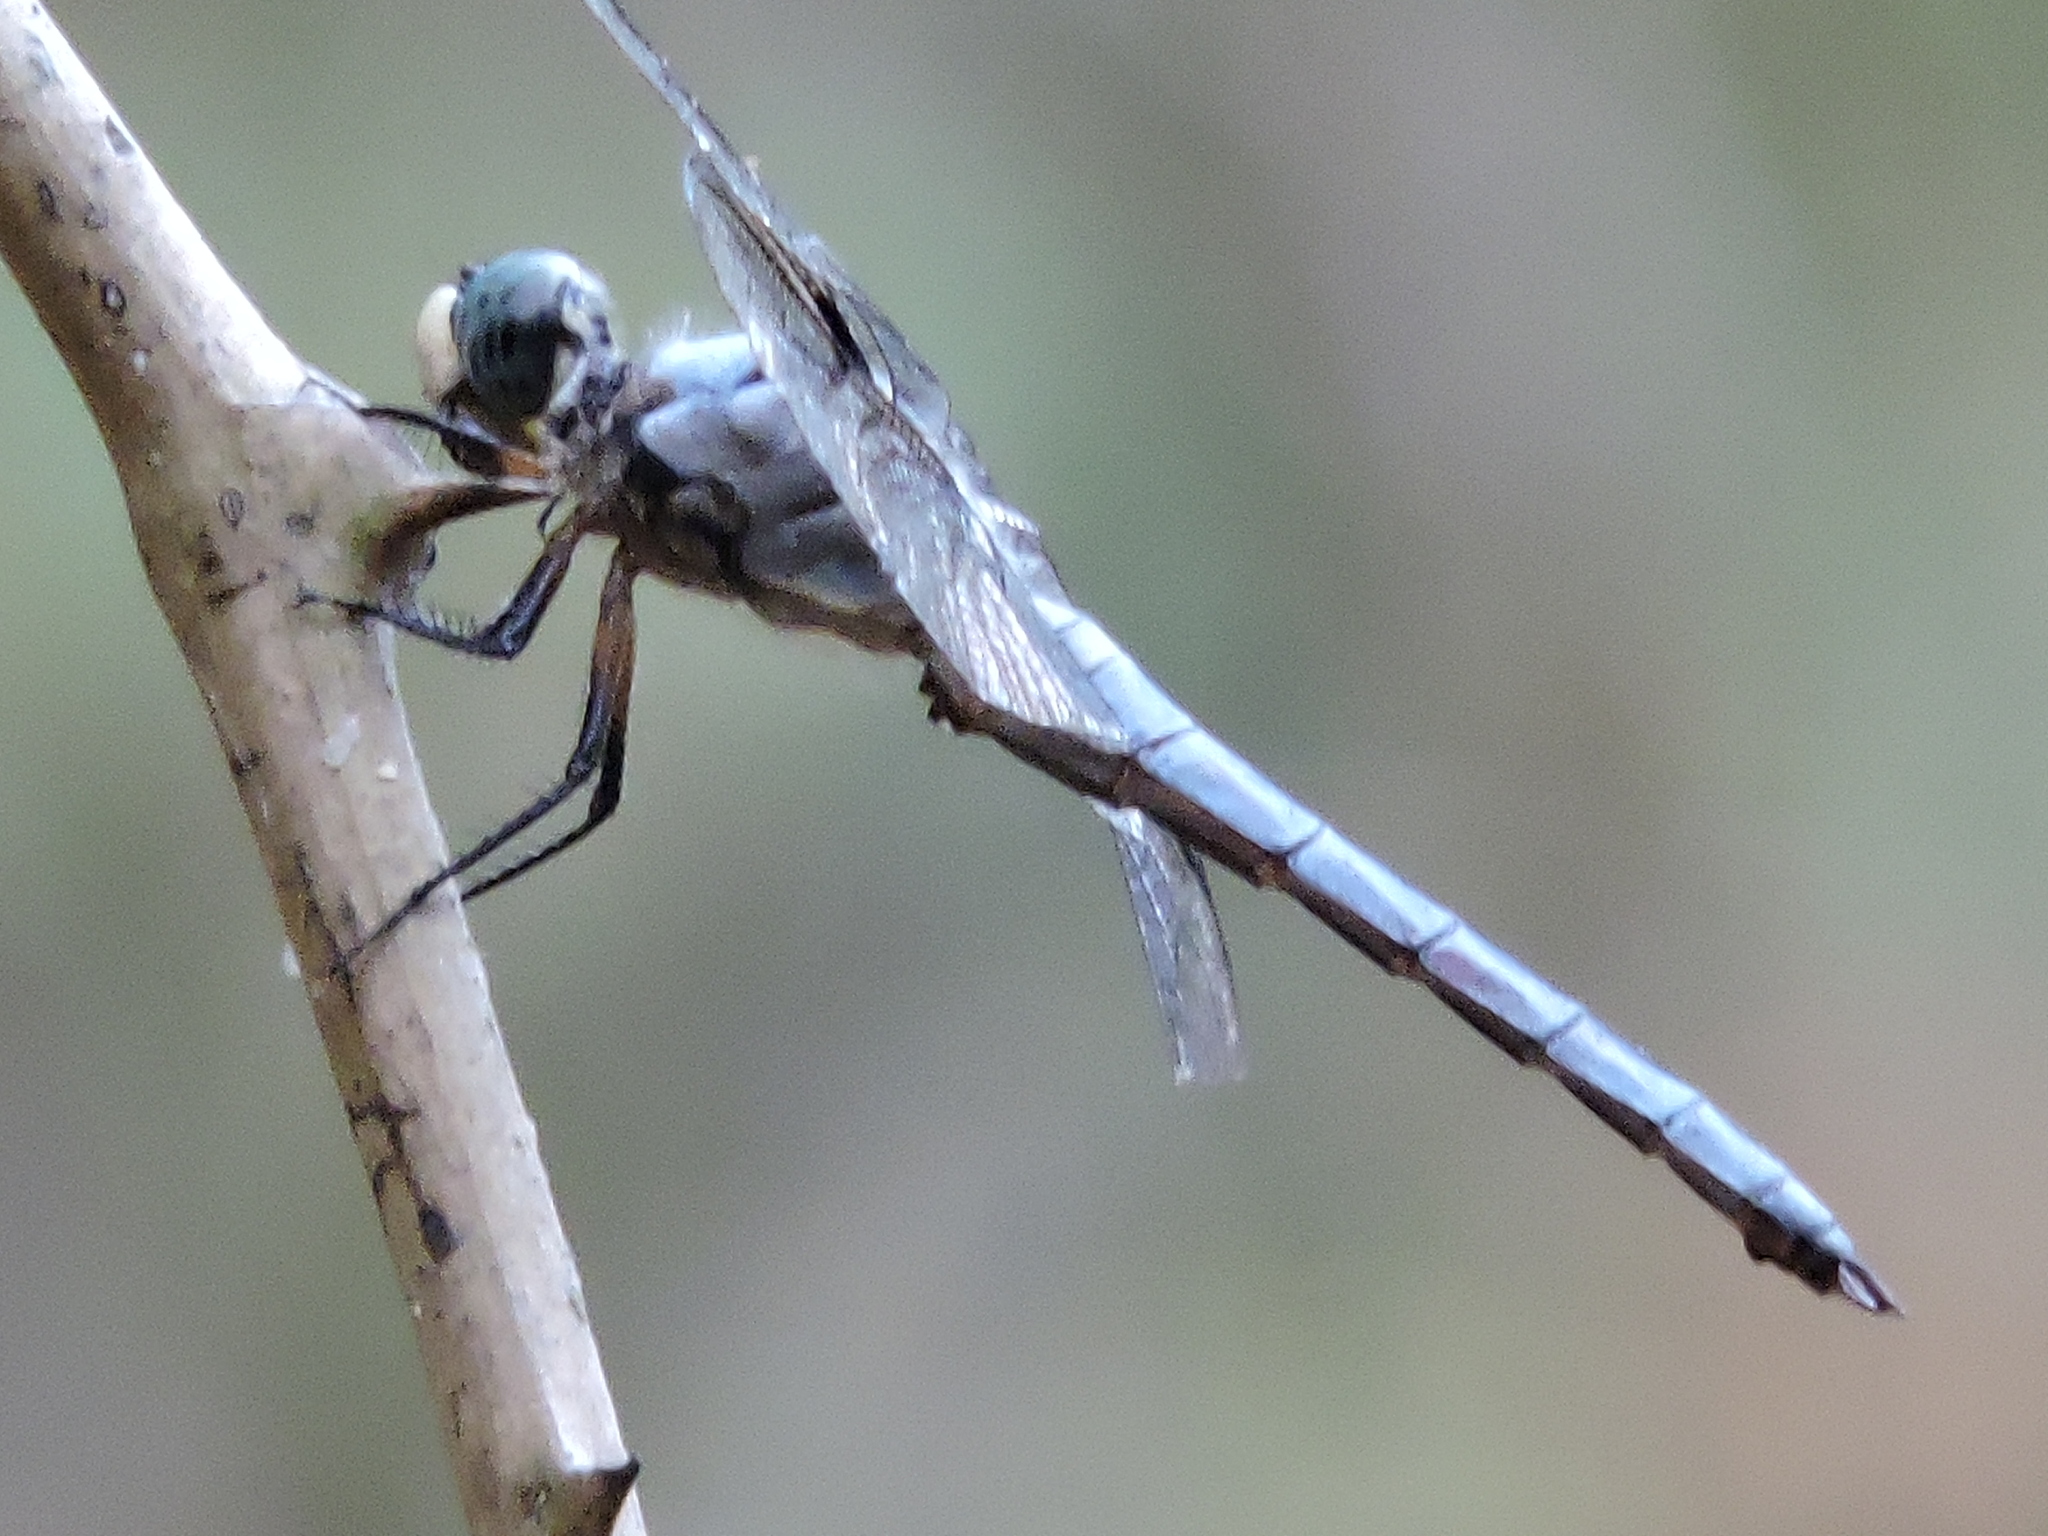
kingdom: Animalia
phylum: Arthropoda
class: Insecta
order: Odonata
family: Libellulidae
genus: Libellula
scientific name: Libellula vibrans
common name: Great blue skimmer
